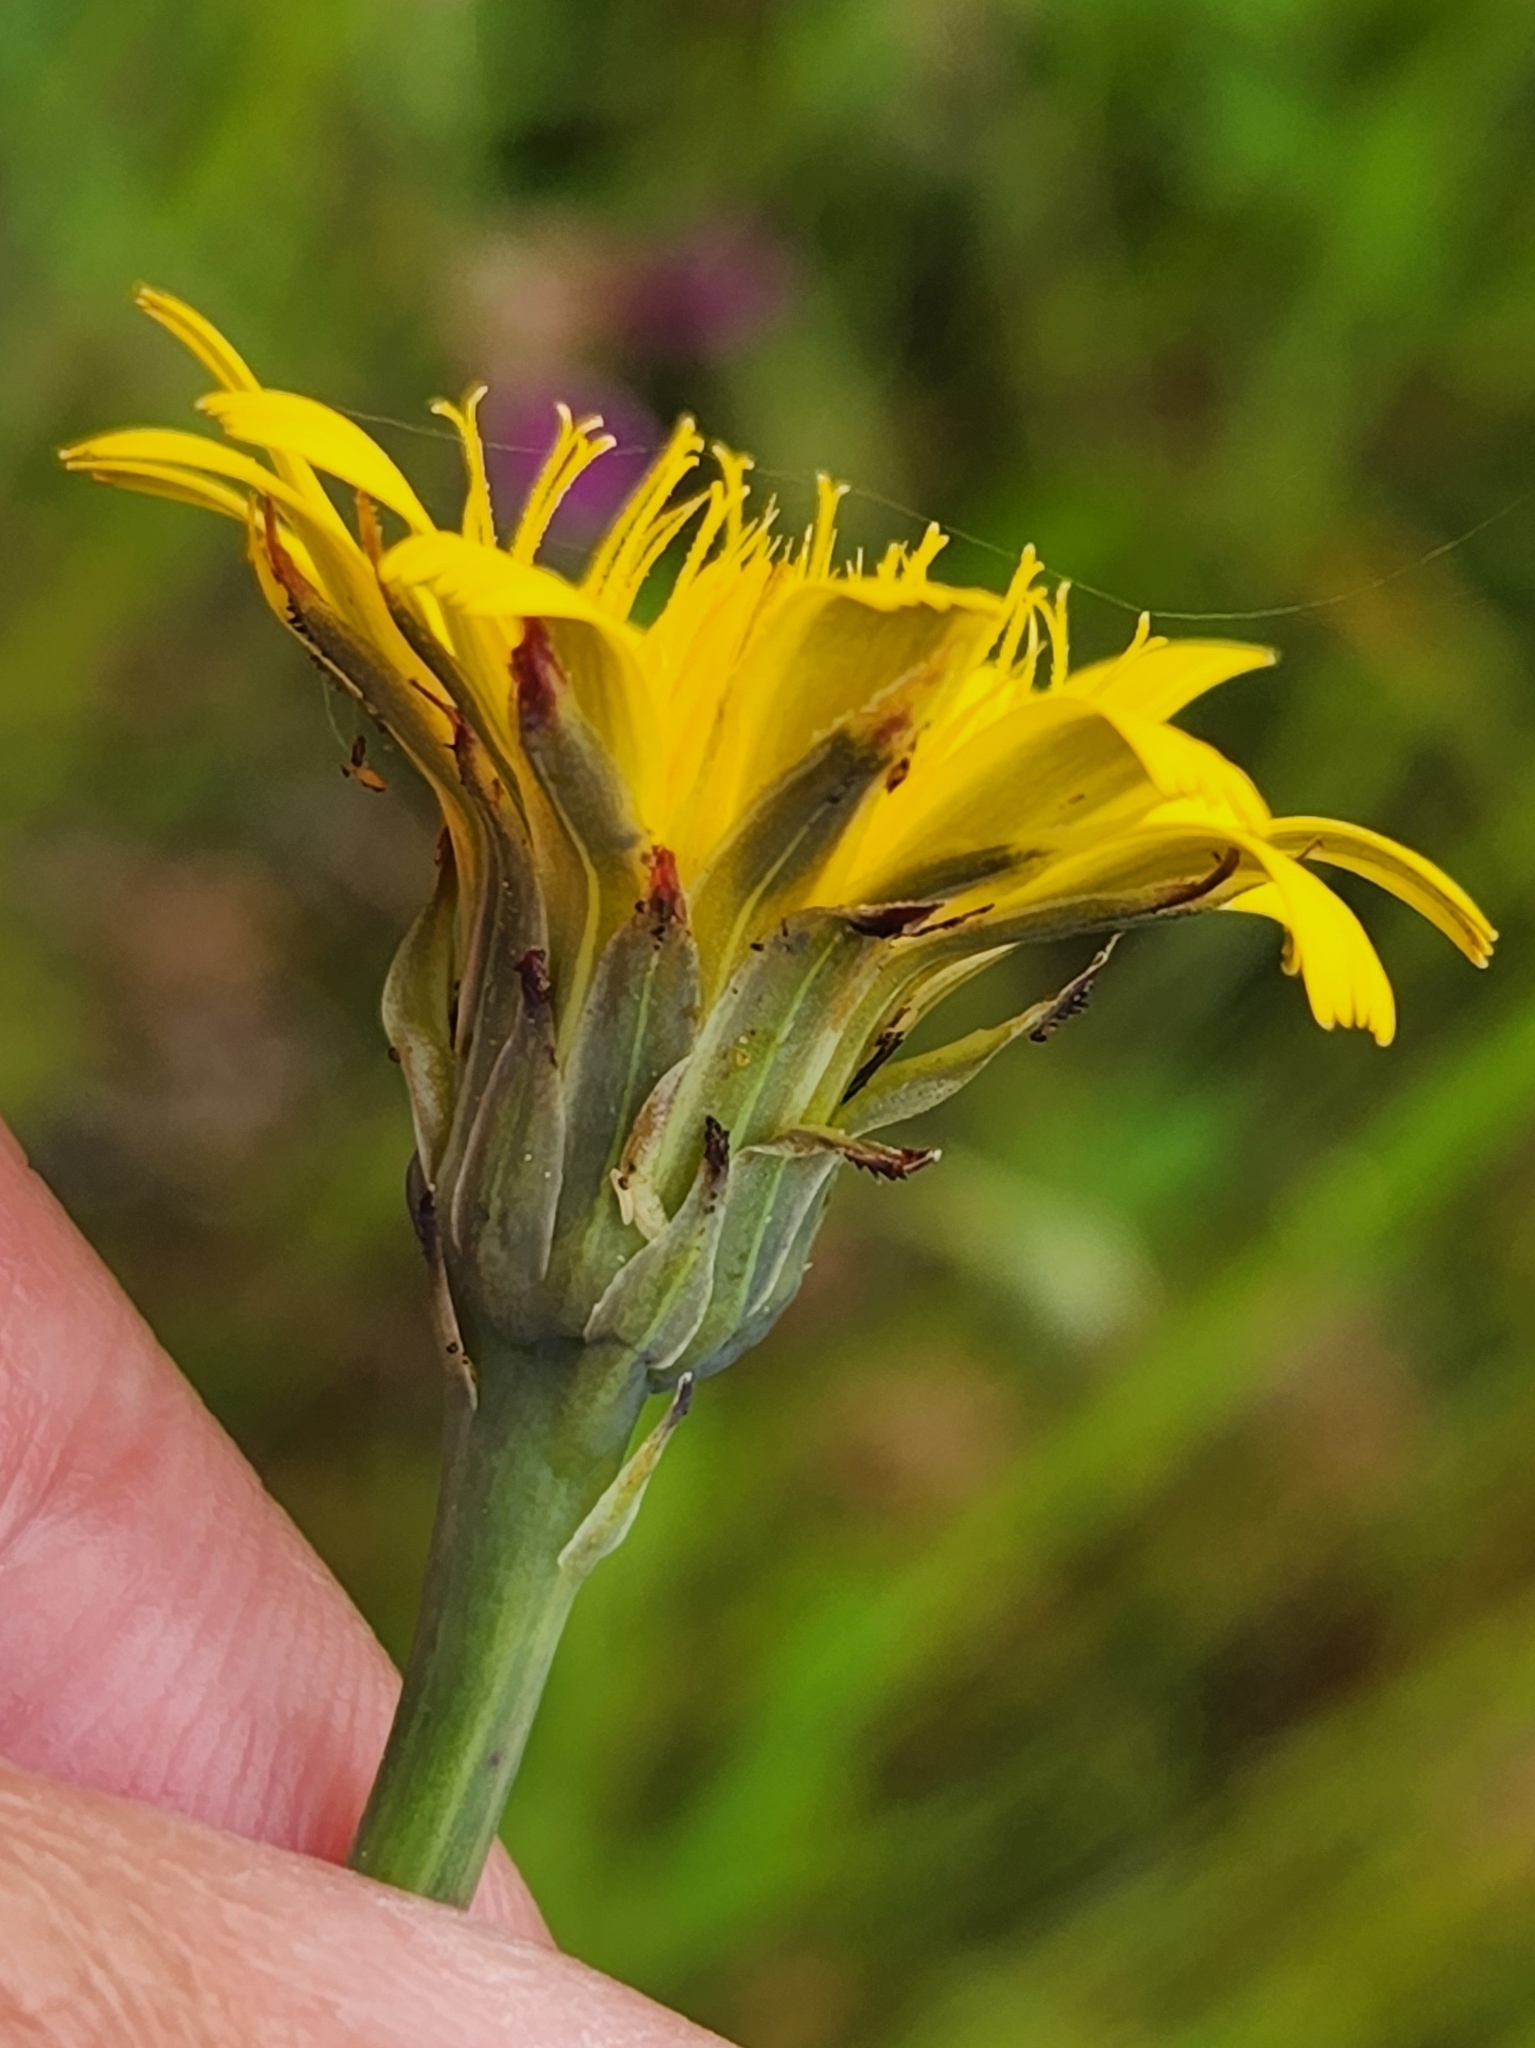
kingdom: Plantae
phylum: Tracheophyta
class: Magnoliopsida
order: Asterales
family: Asteraceae
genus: Hypochaeris
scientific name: Hypochaeris radicata
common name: Flatweed
